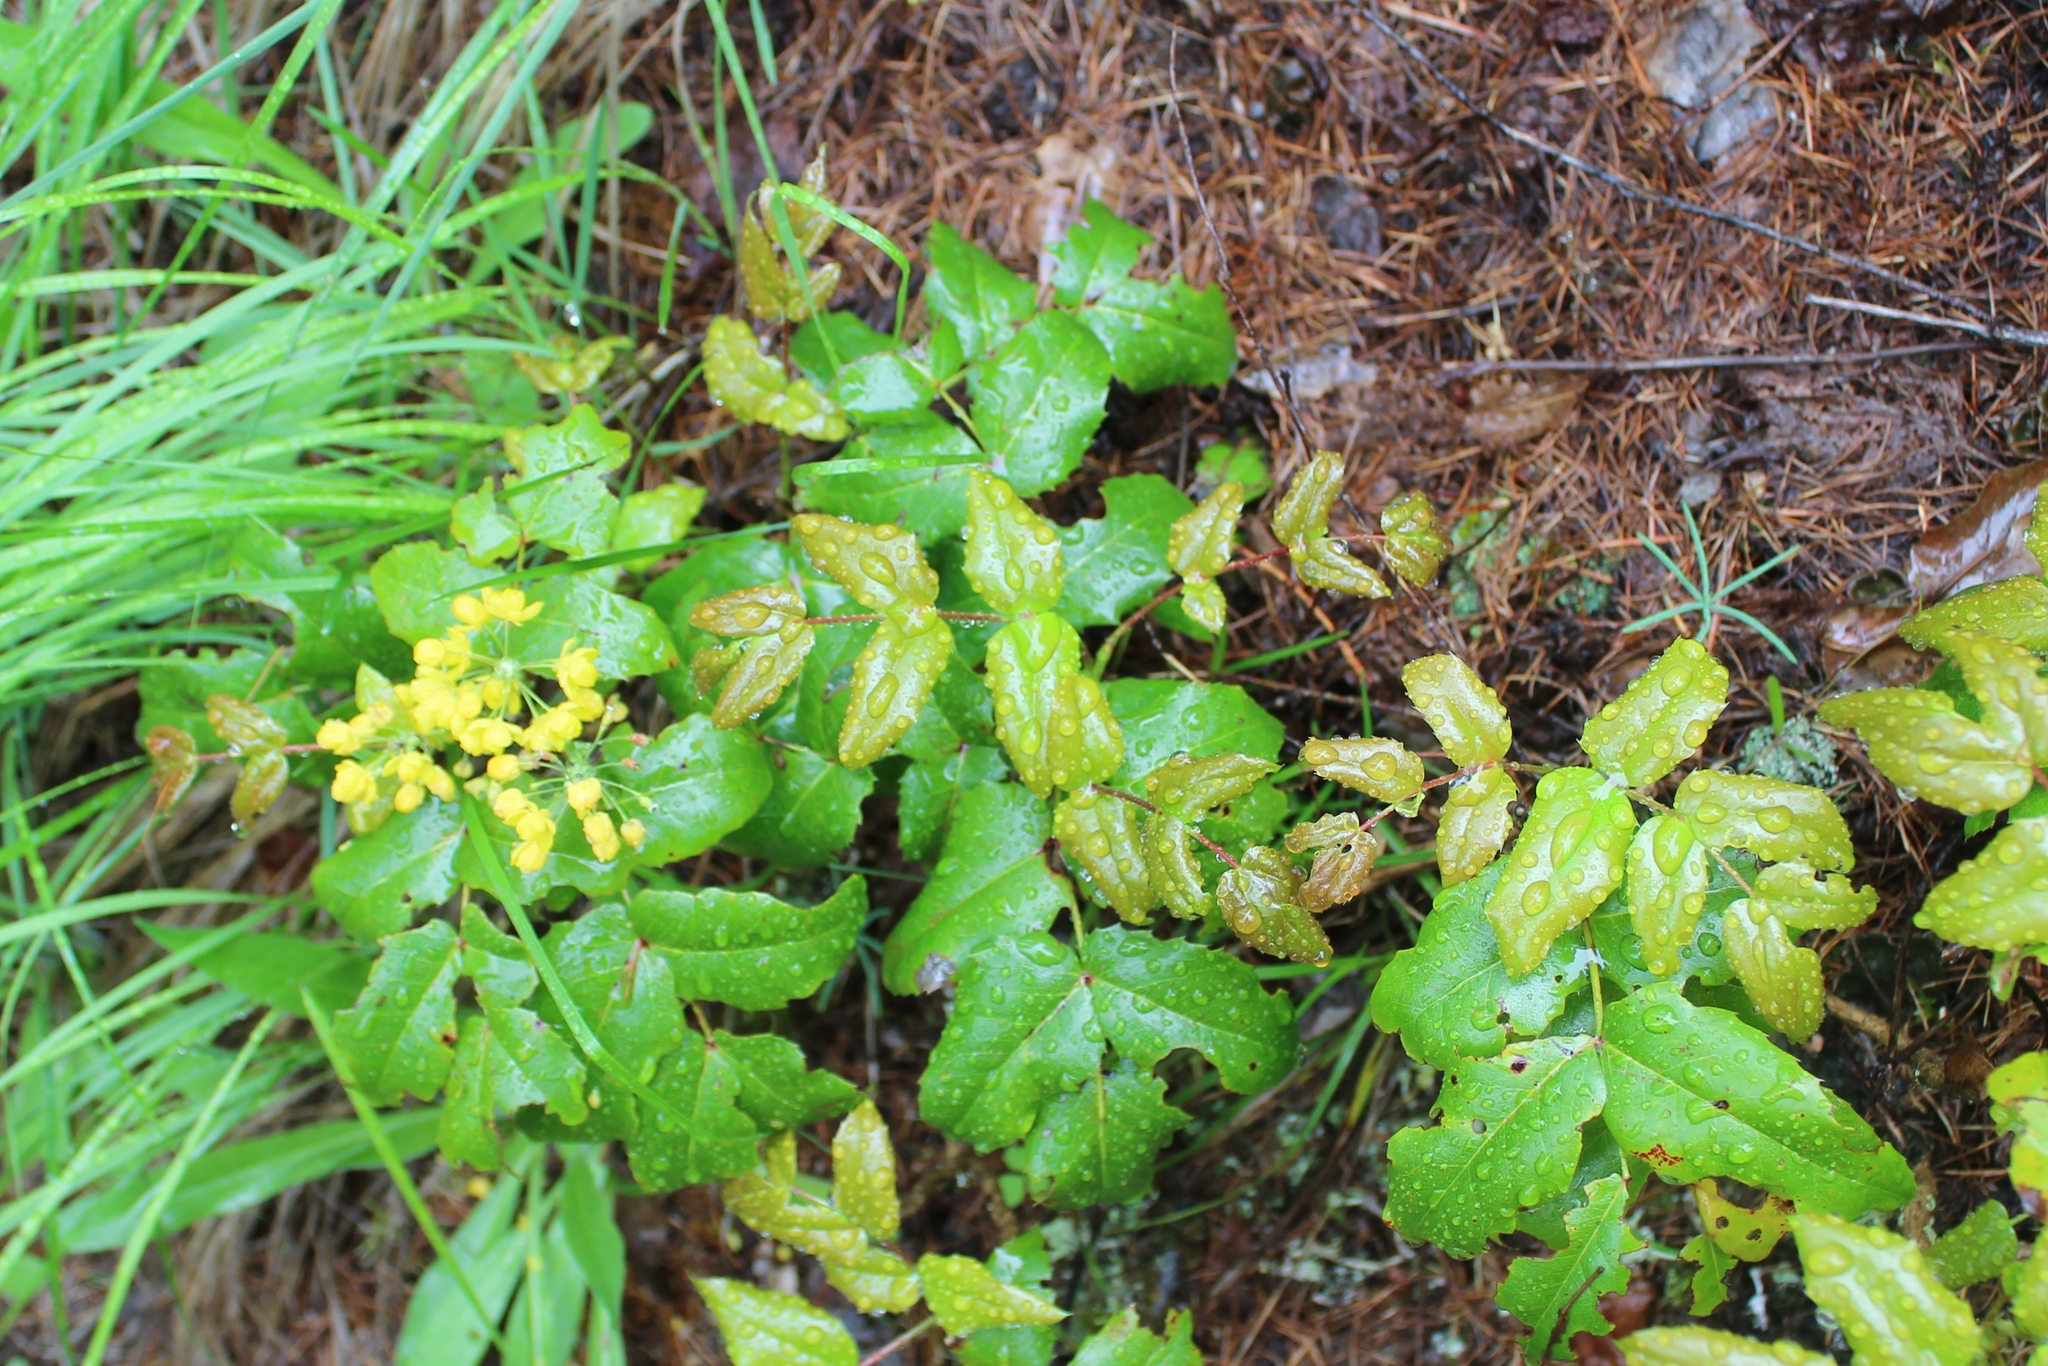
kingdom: Plantae
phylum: Tracheophyta
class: Magnoliopsida
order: Ranunculales
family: Berberidaceae
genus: Mahonia
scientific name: Mahonia repens
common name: Creeping oregon-grape
